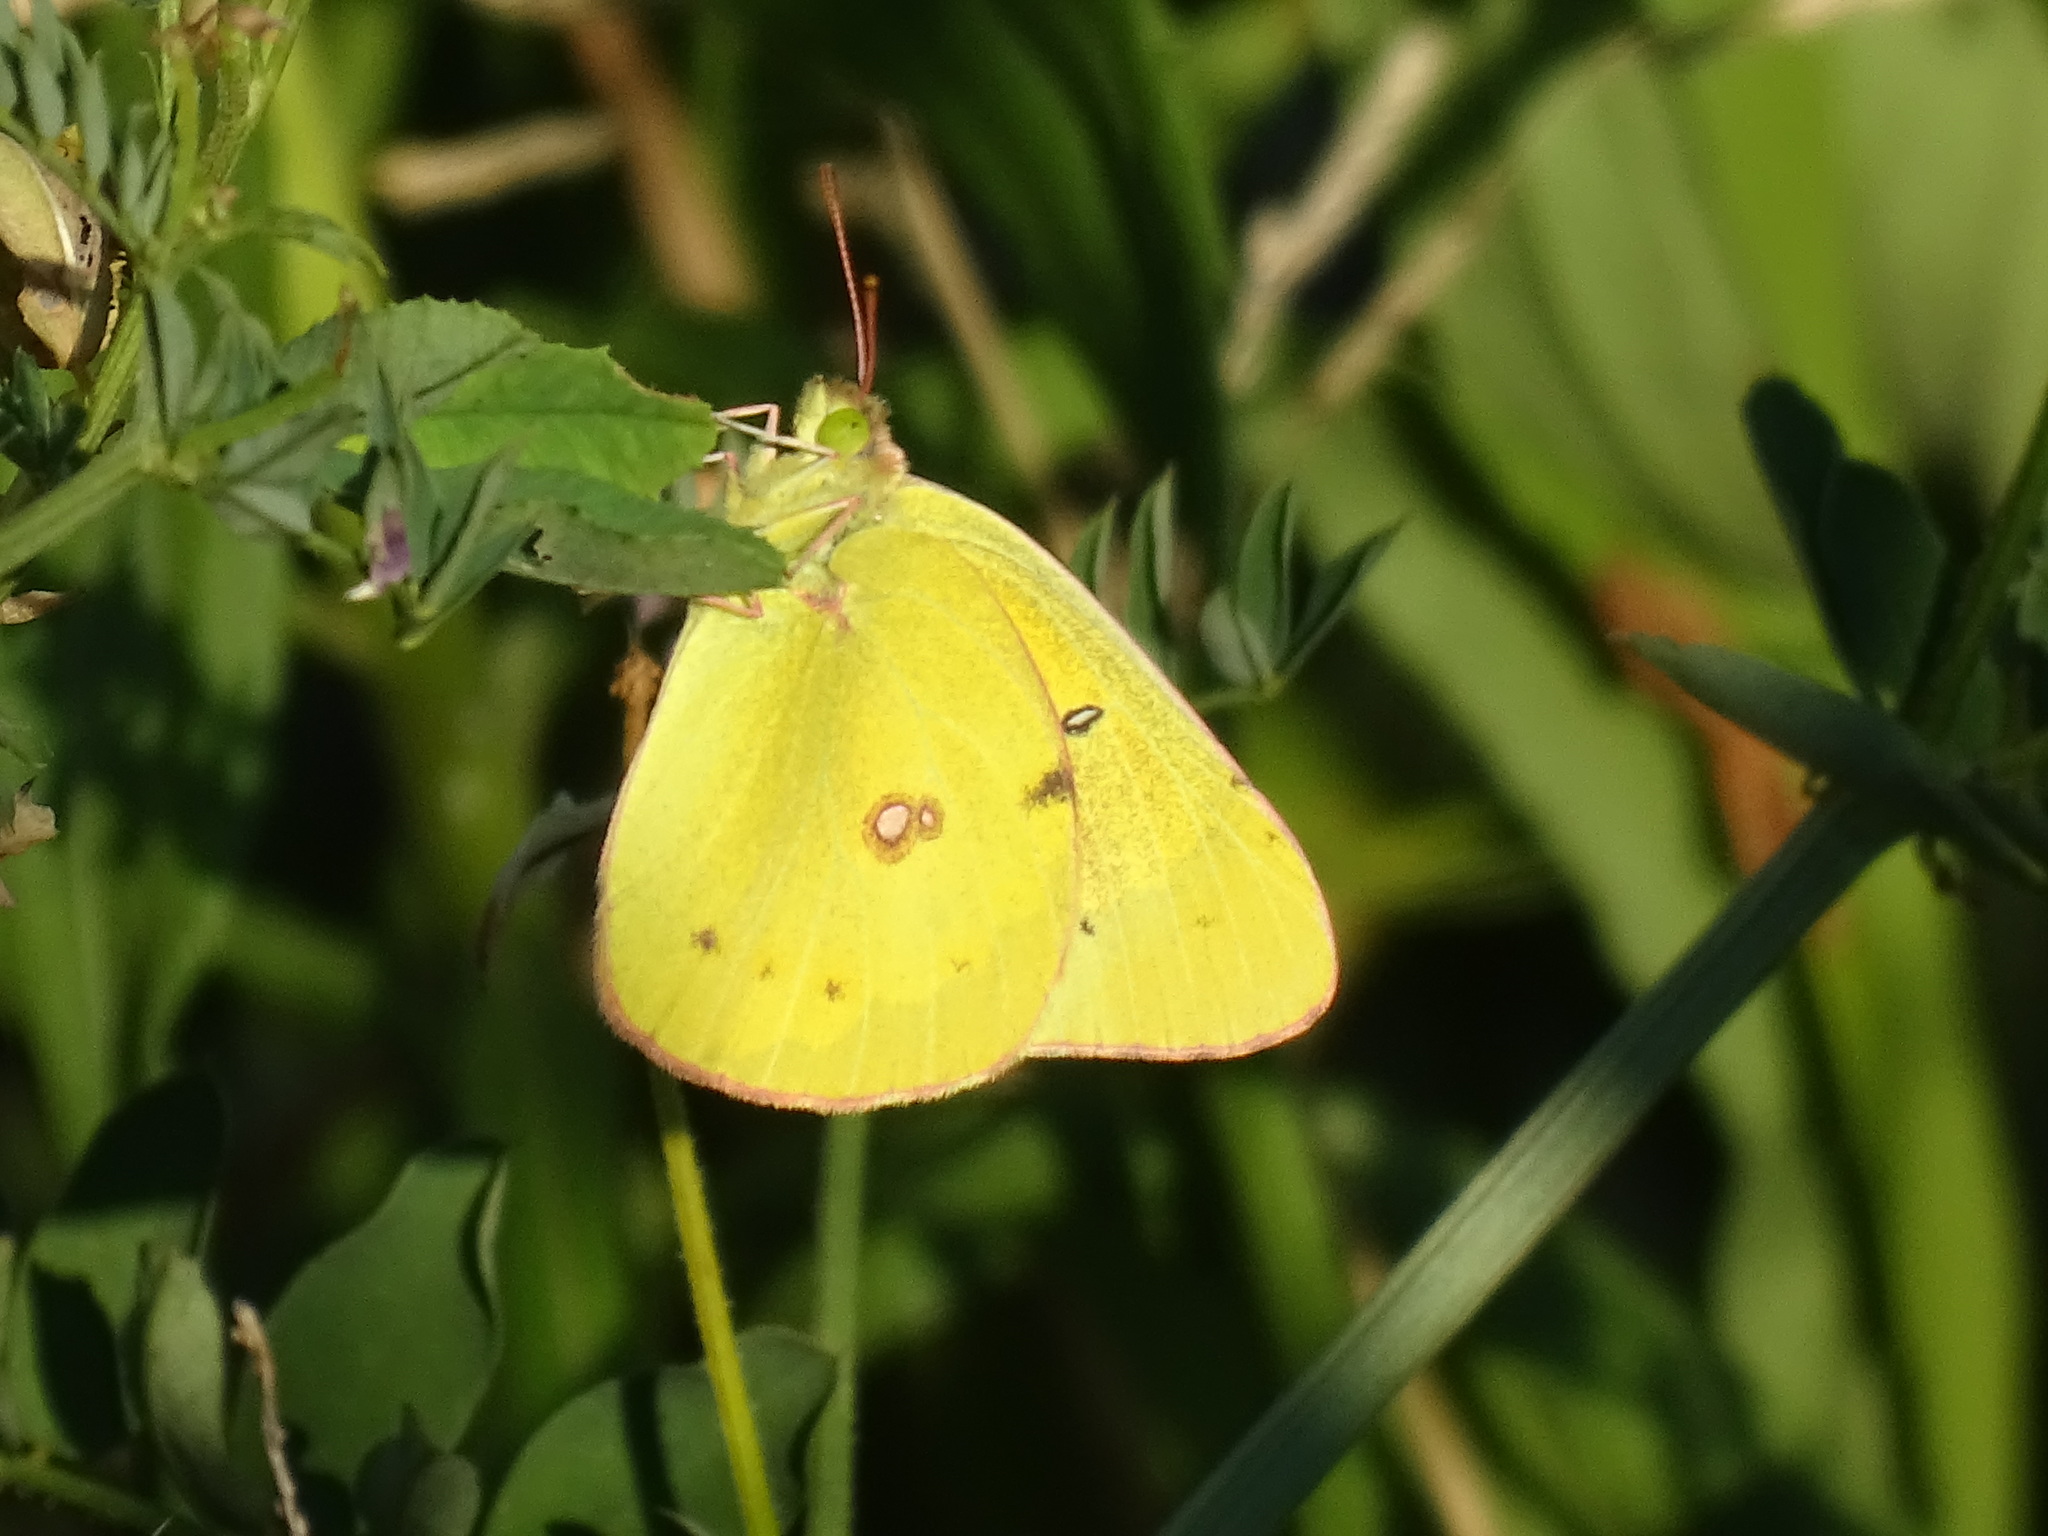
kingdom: Animalia
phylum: Arthropoda
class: Insecta
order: Lepidoptera
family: Pieridae
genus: Colias
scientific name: Colias philodice
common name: Clouded sulphur
